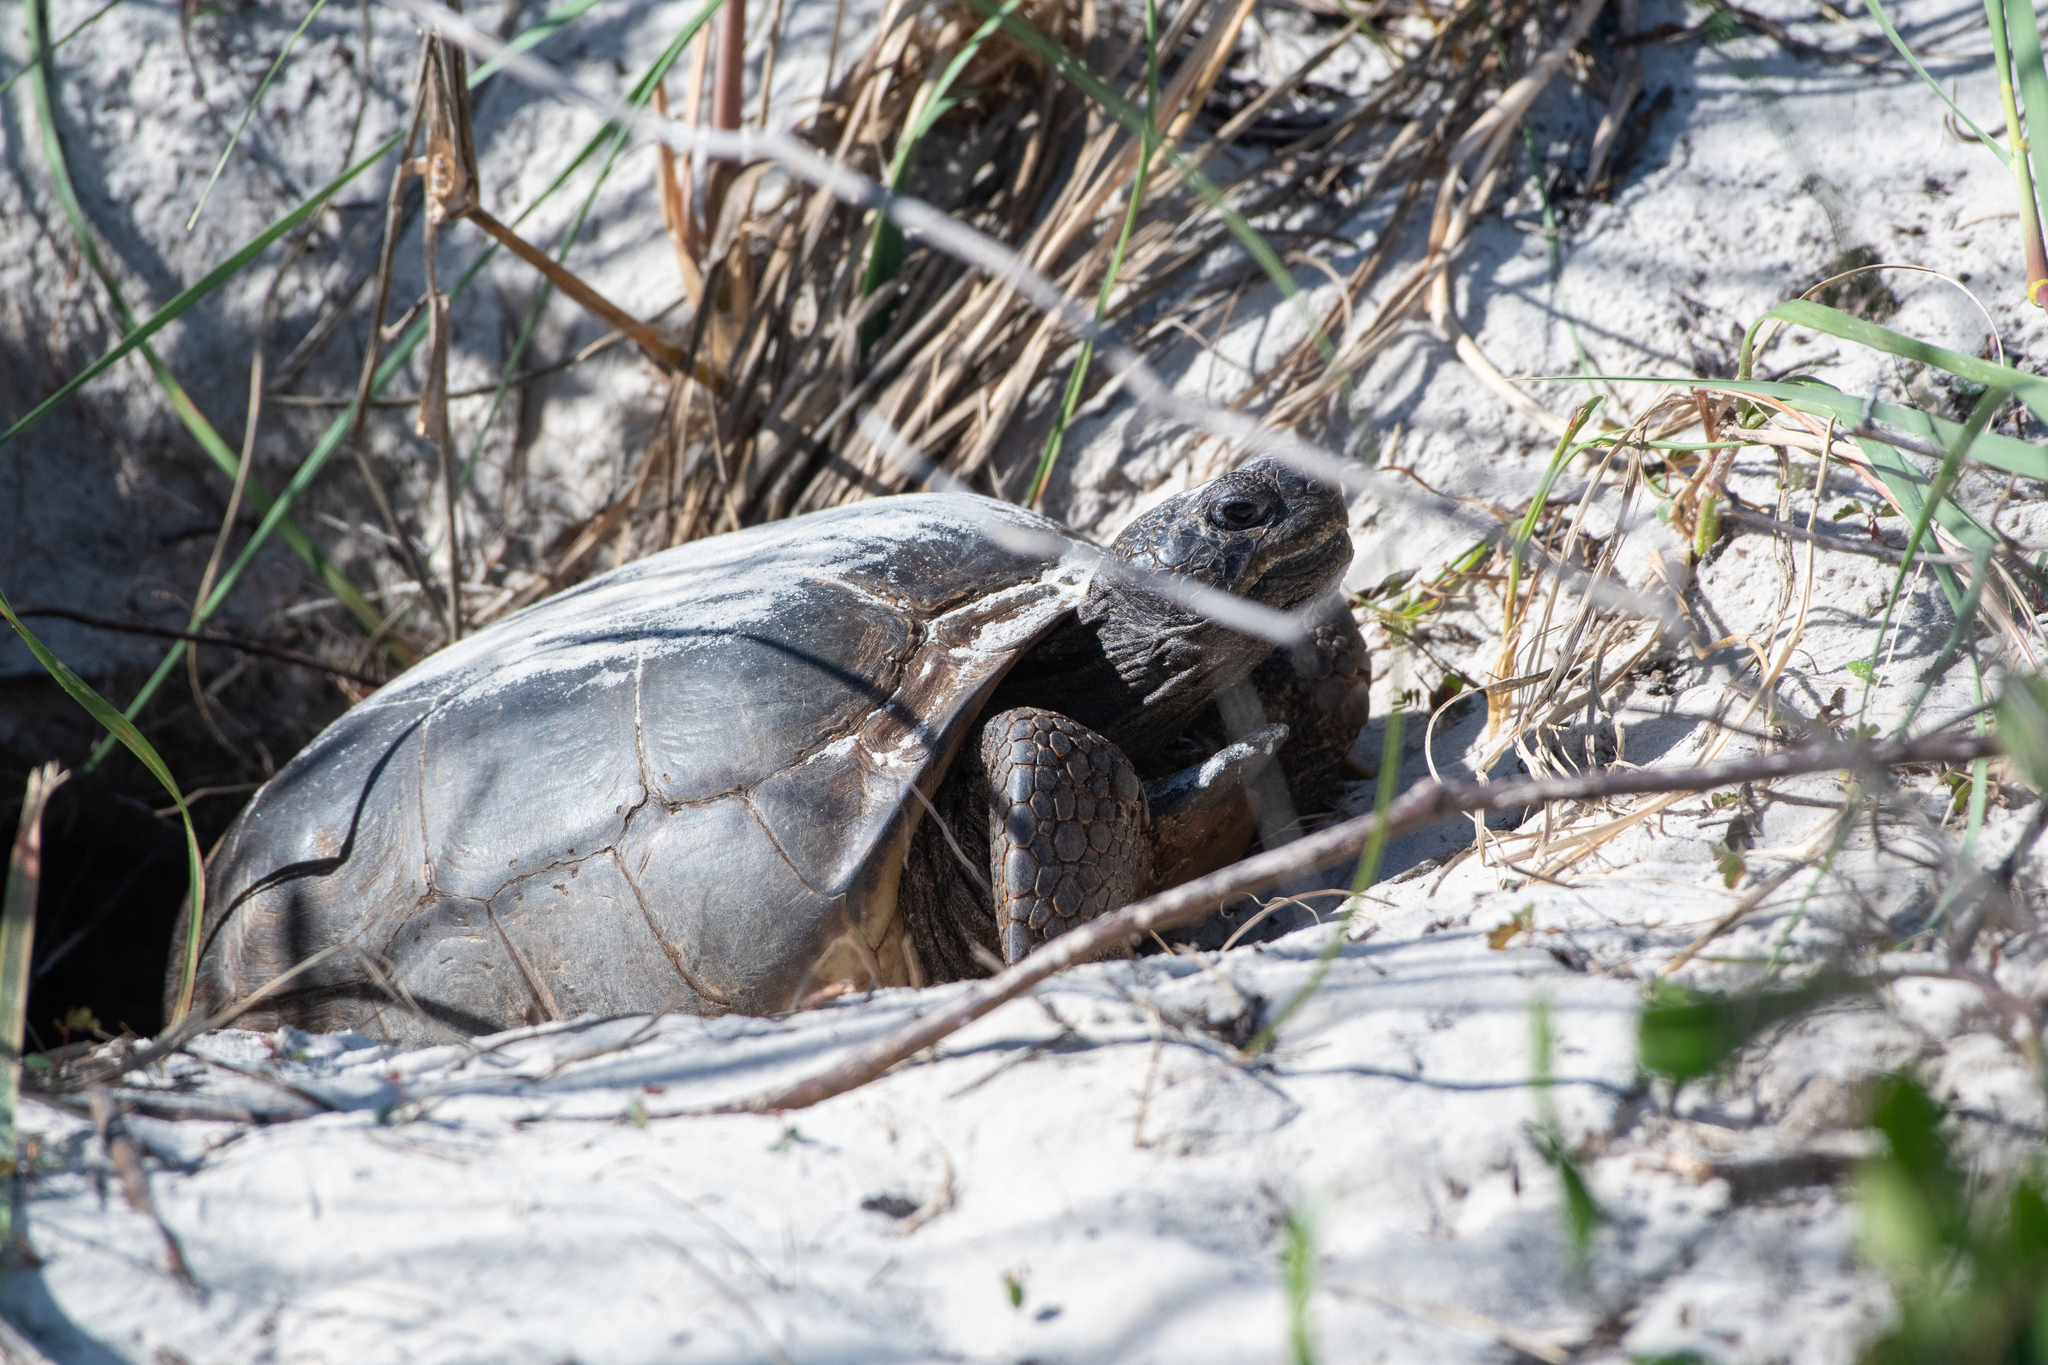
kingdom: Animalia
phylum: Chordata
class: Testudines
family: Testudinidae
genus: Gopherus
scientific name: Gopherus polyphemus
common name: Florida gopher tortoise
